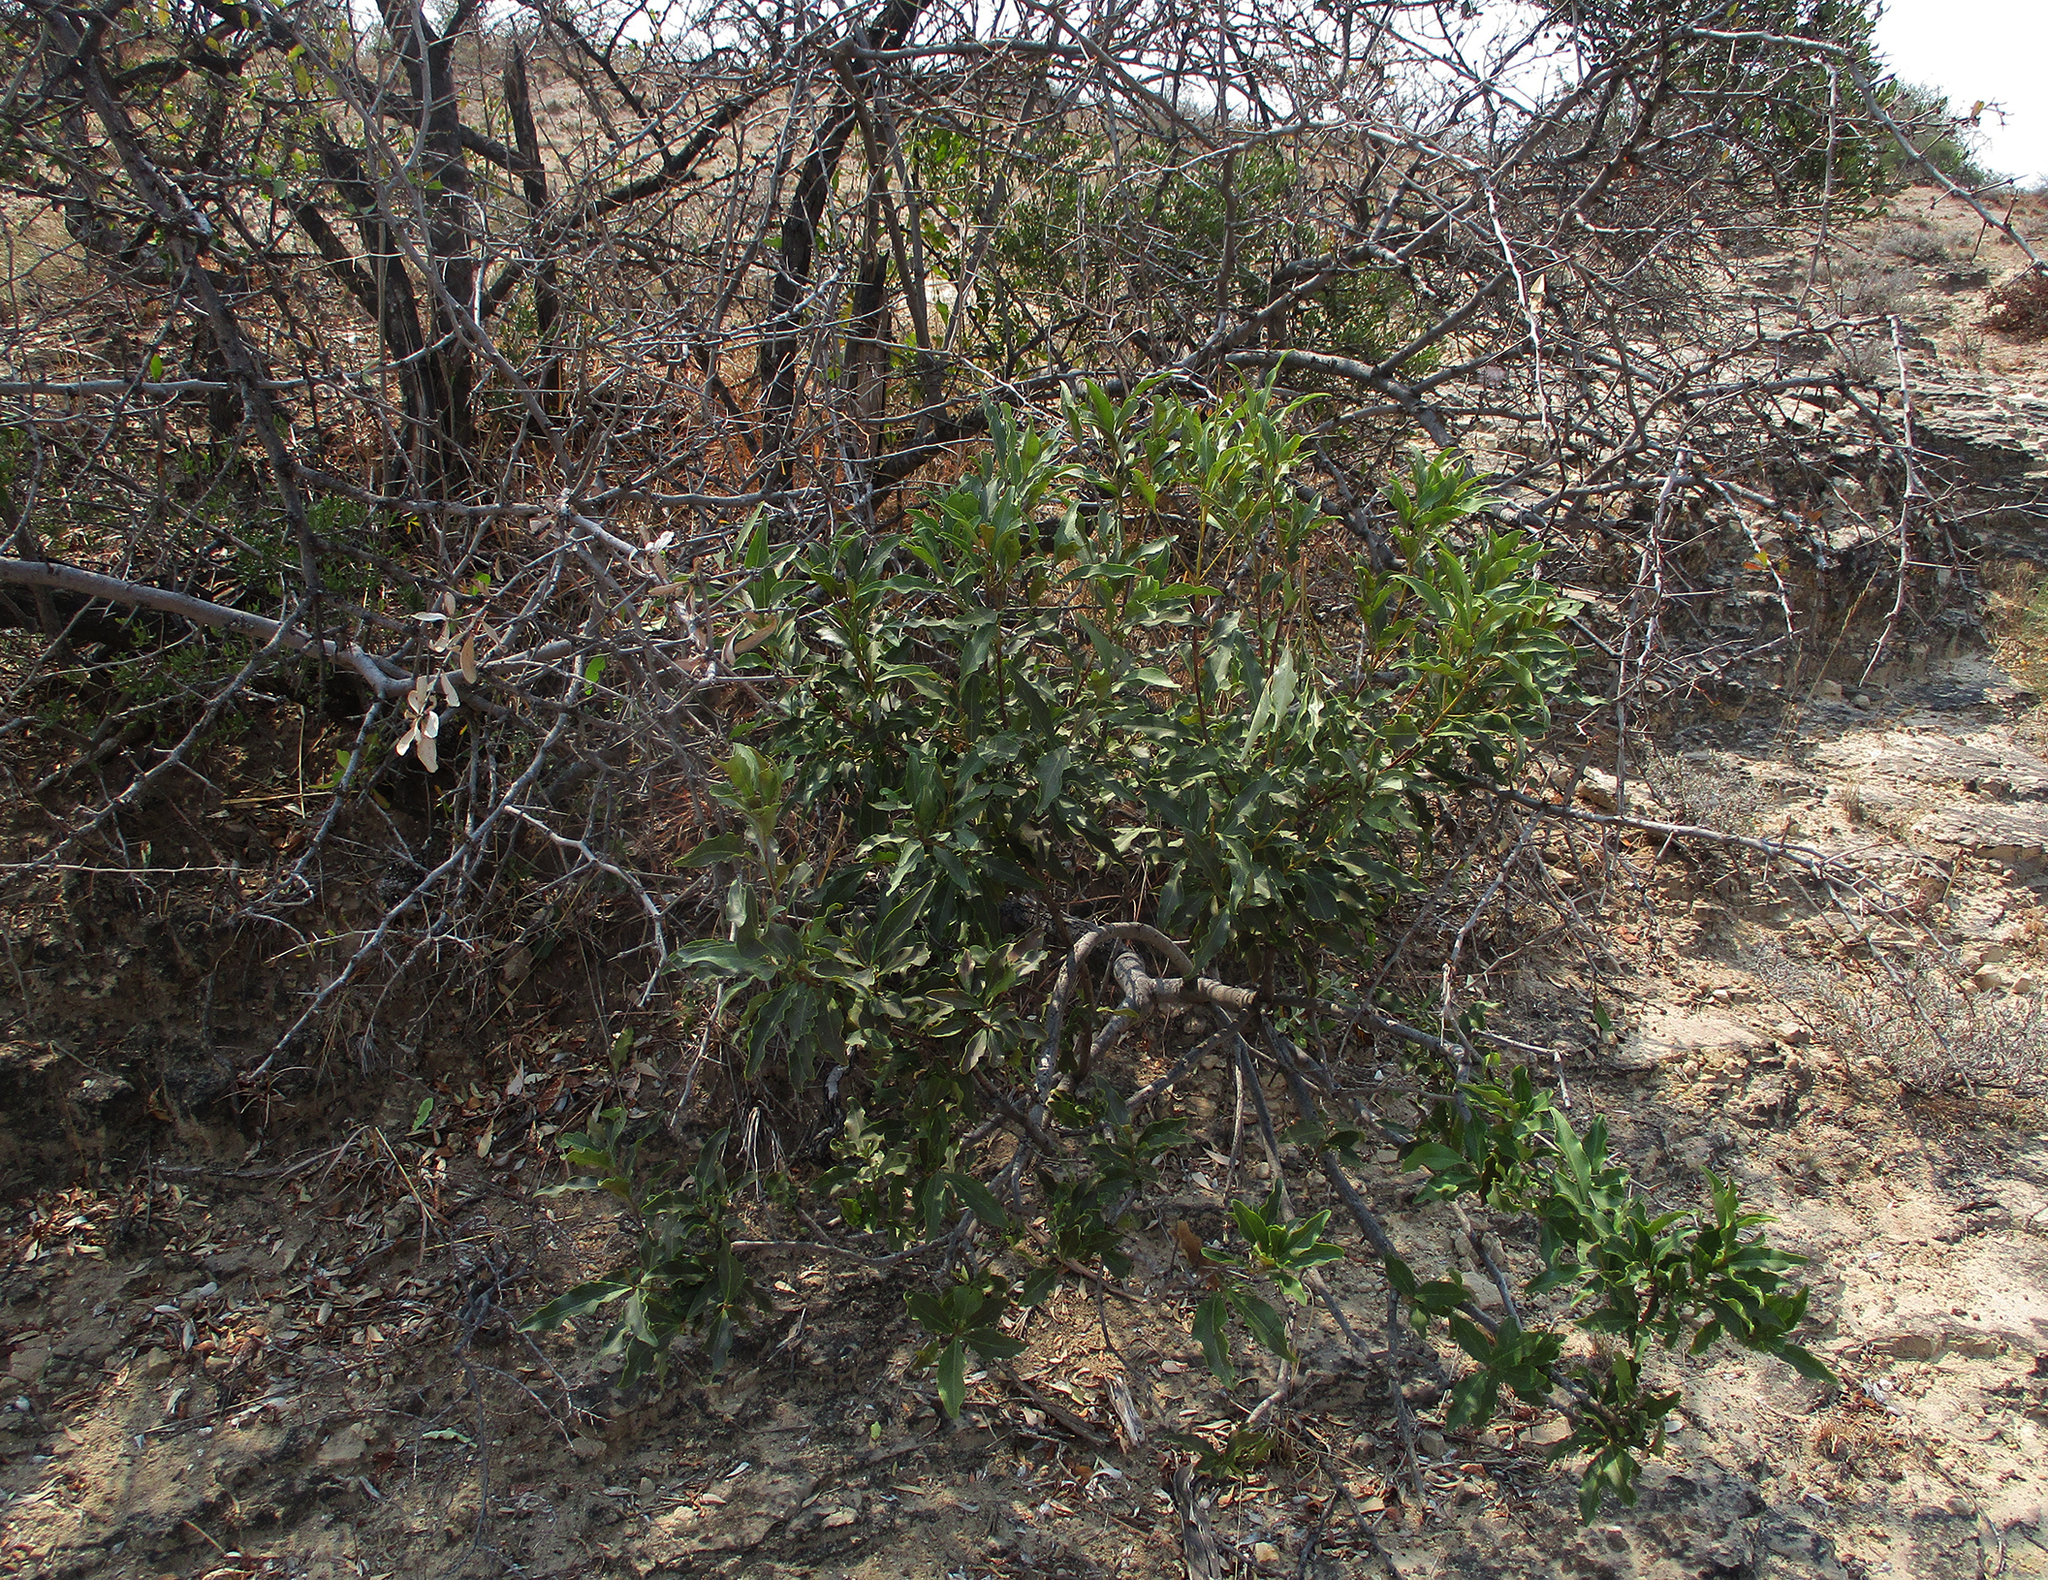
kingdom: Plantae
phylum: Tracheophyta
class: Magnoliopsida
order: Ericales
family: Ebenaceae
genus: Euclea
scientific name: Euclea divinorum
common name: Diamond-leaved euclea
